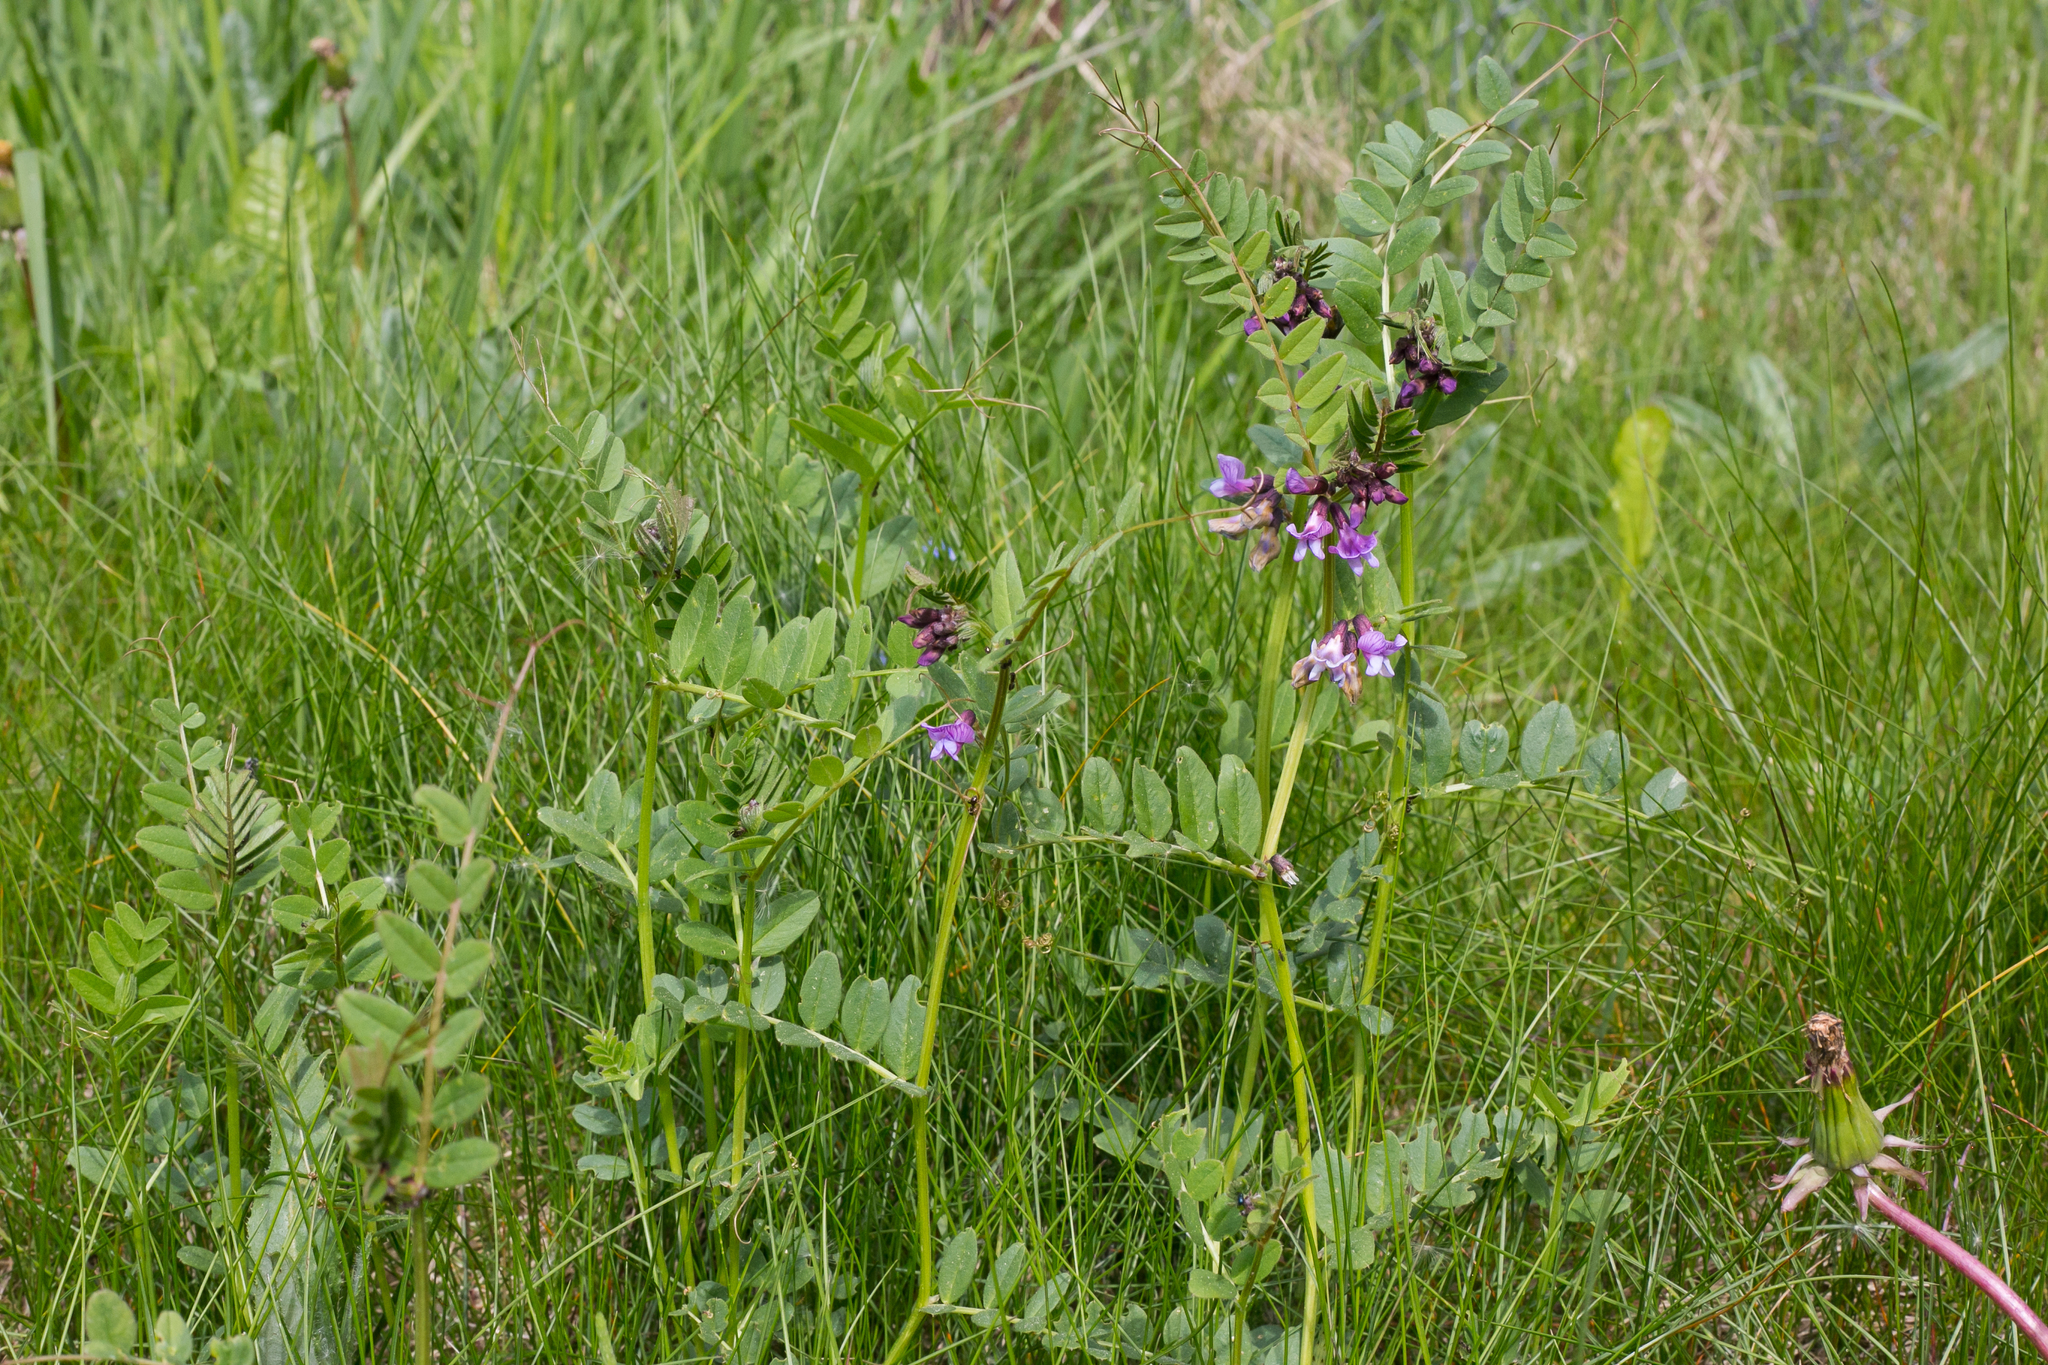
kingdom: Plantae
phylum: Tracheophyta
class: Magnoliopsida
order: Fabales
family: Fabaceae
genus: Vicia
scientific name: Vicia sepium
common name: Bush vetch
